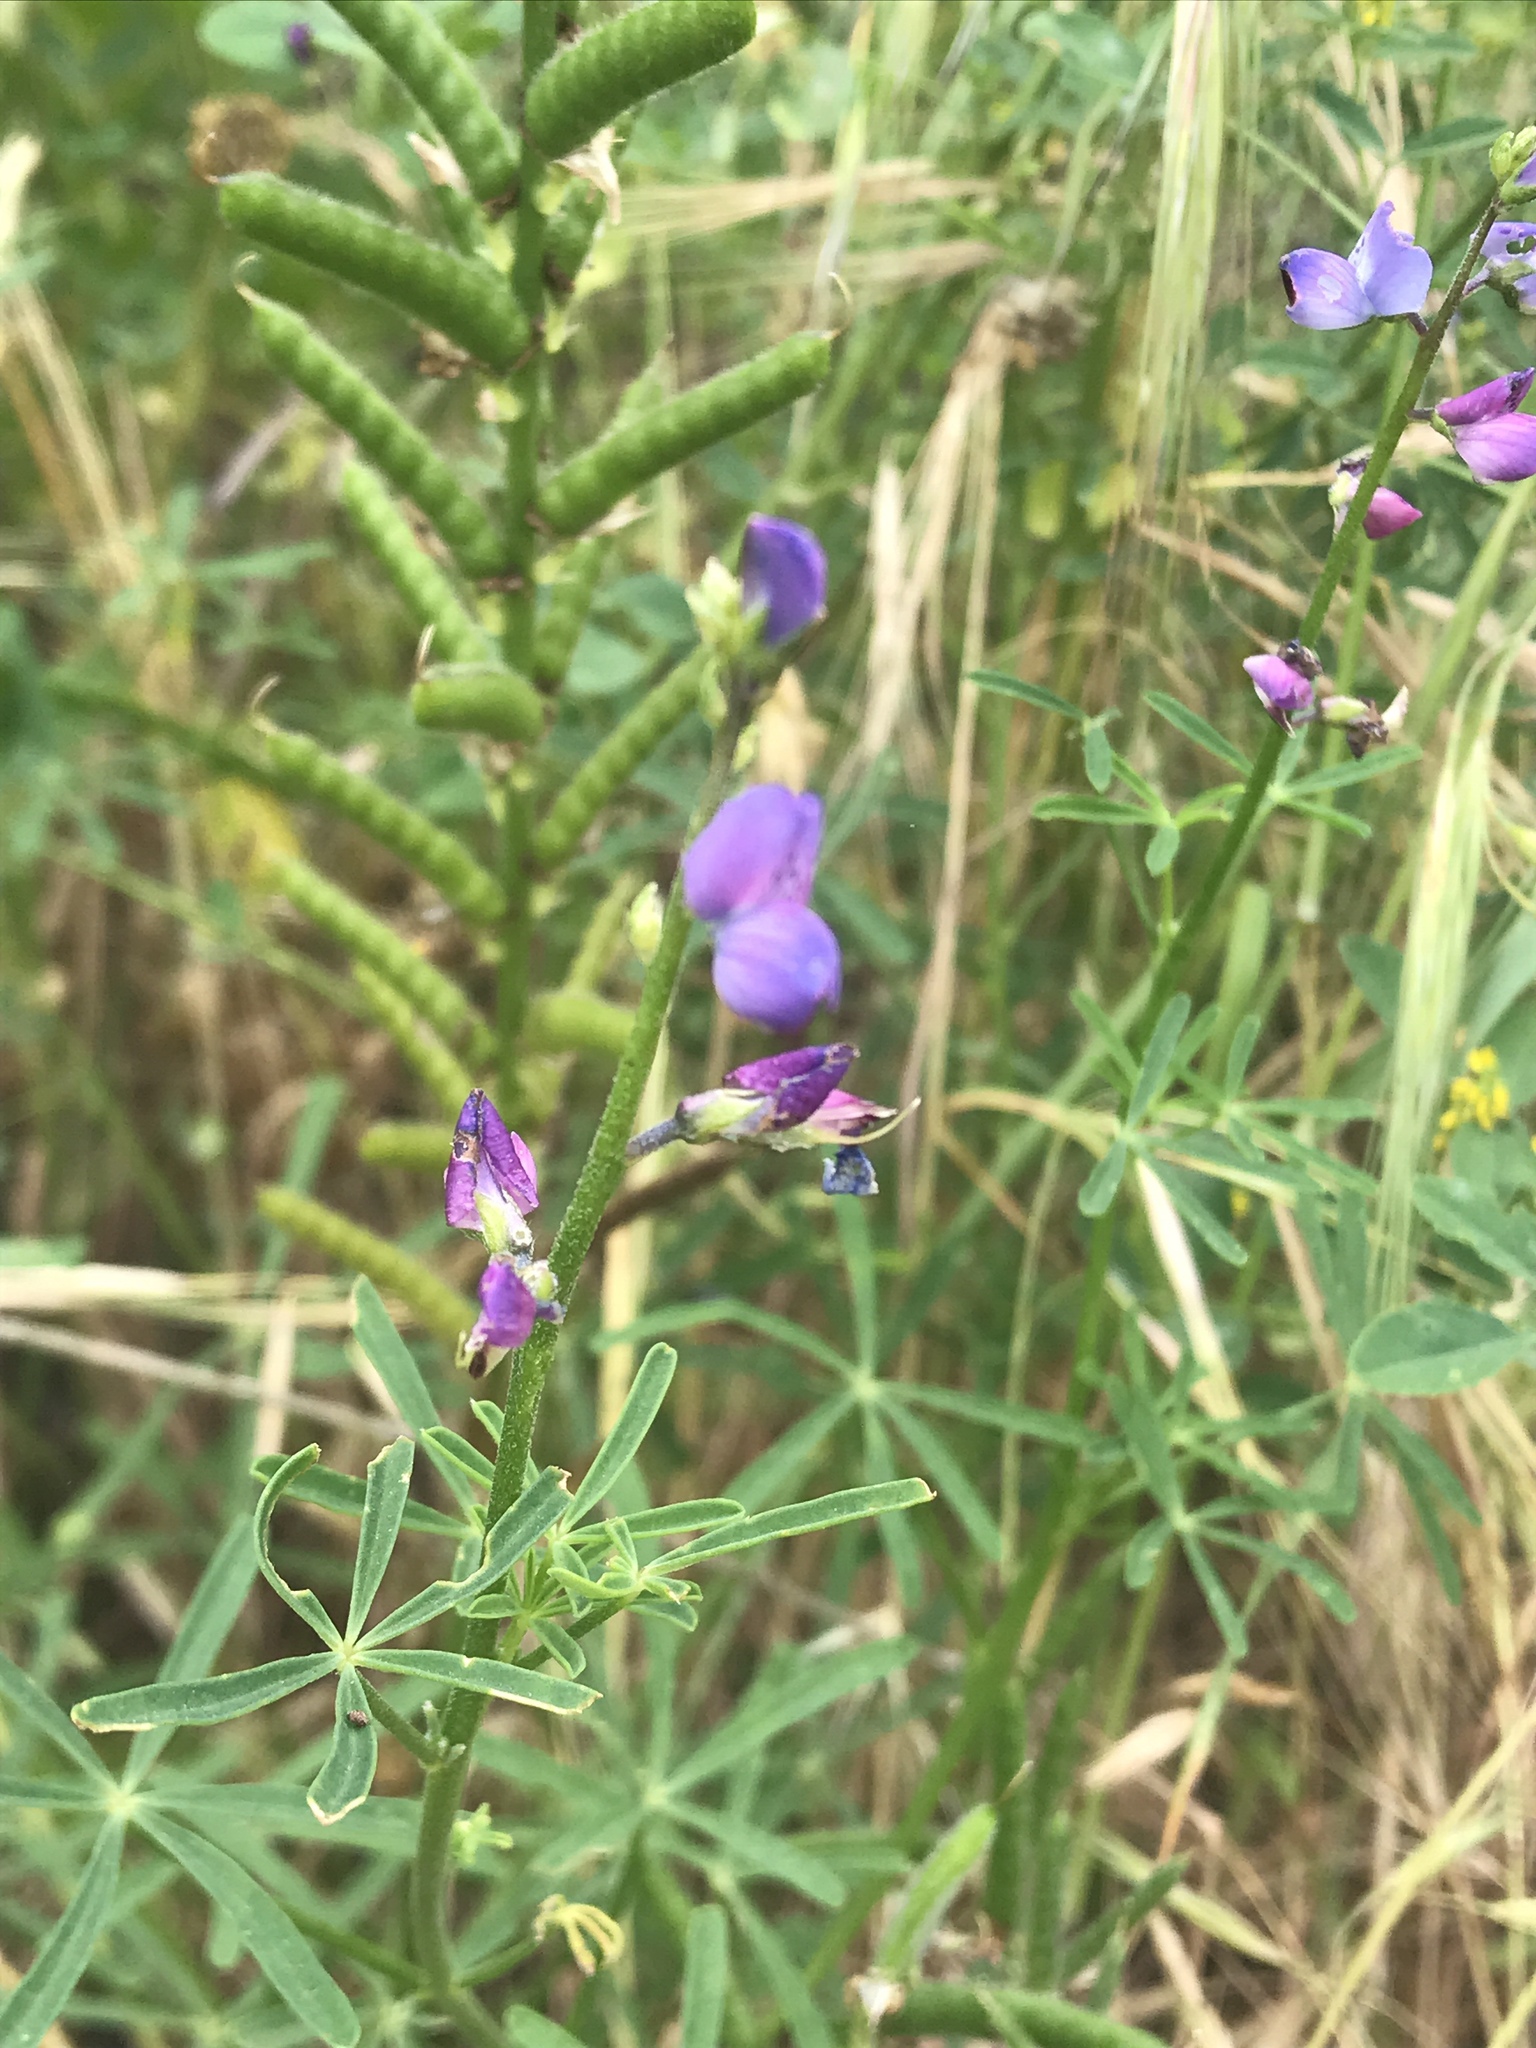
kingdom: Plantae
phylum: Tracheophyta
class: Magnoliopsida
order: Fabales
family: Fabaceae
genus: Lupinus
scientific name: Lupinus truncatus
